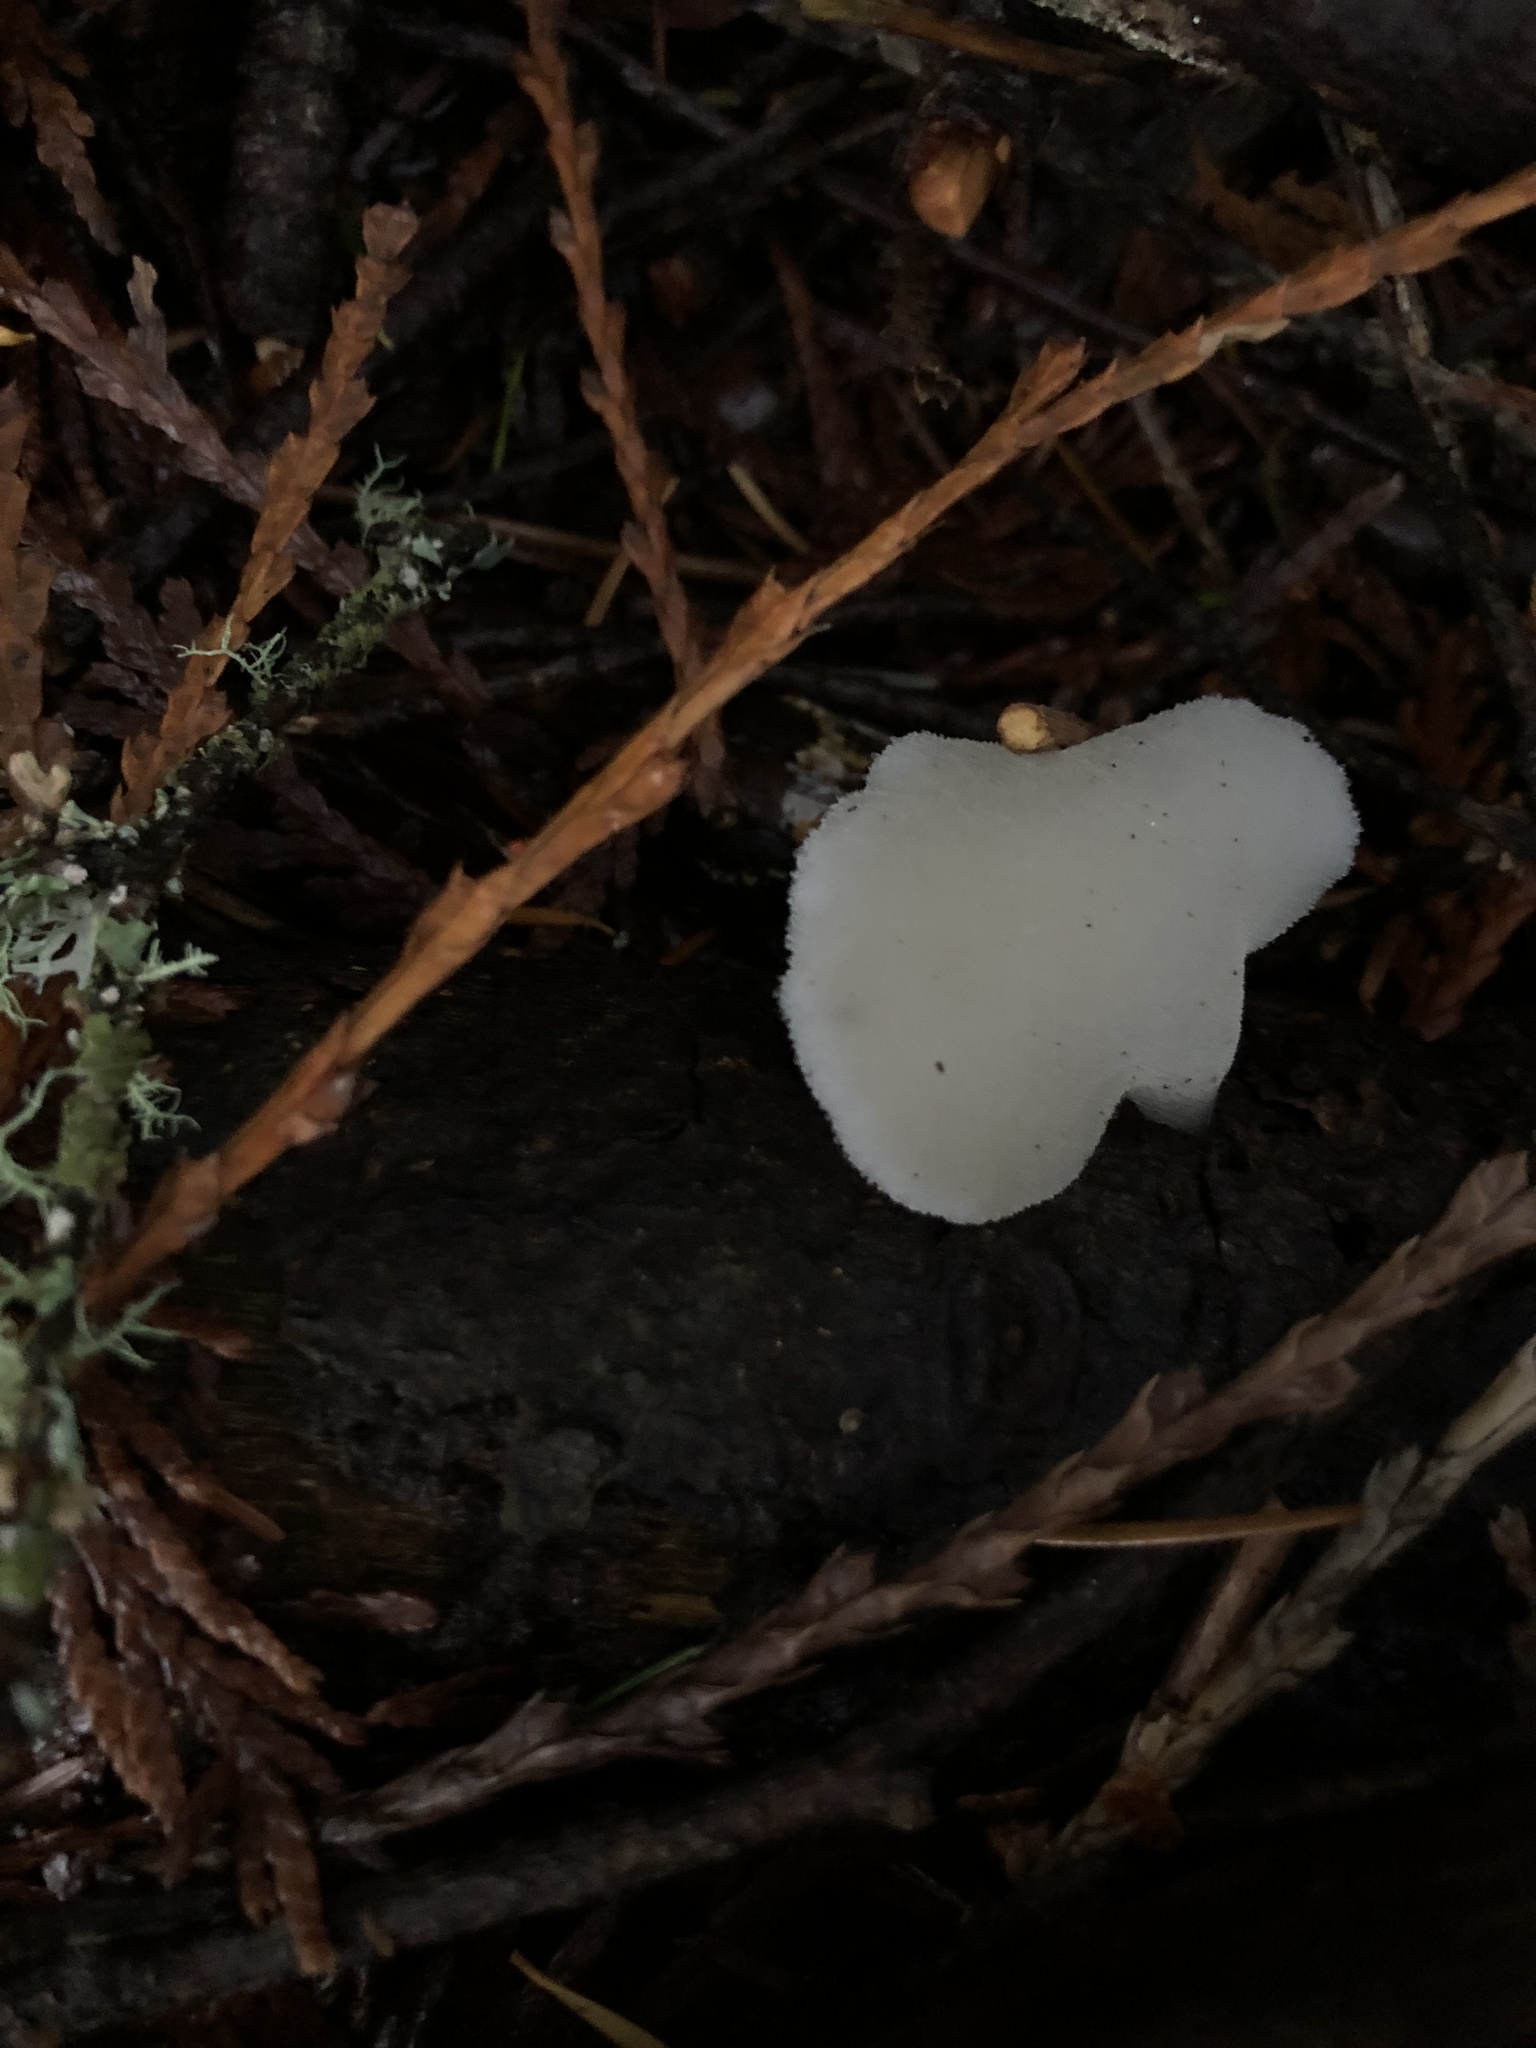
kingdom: Fungi
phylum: Basidiomycota
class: Agaricomycetes
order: Auriculariales
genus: Pseudohydnum
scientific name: Pseudohydnum gelatinosum
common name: Jelly tongue
